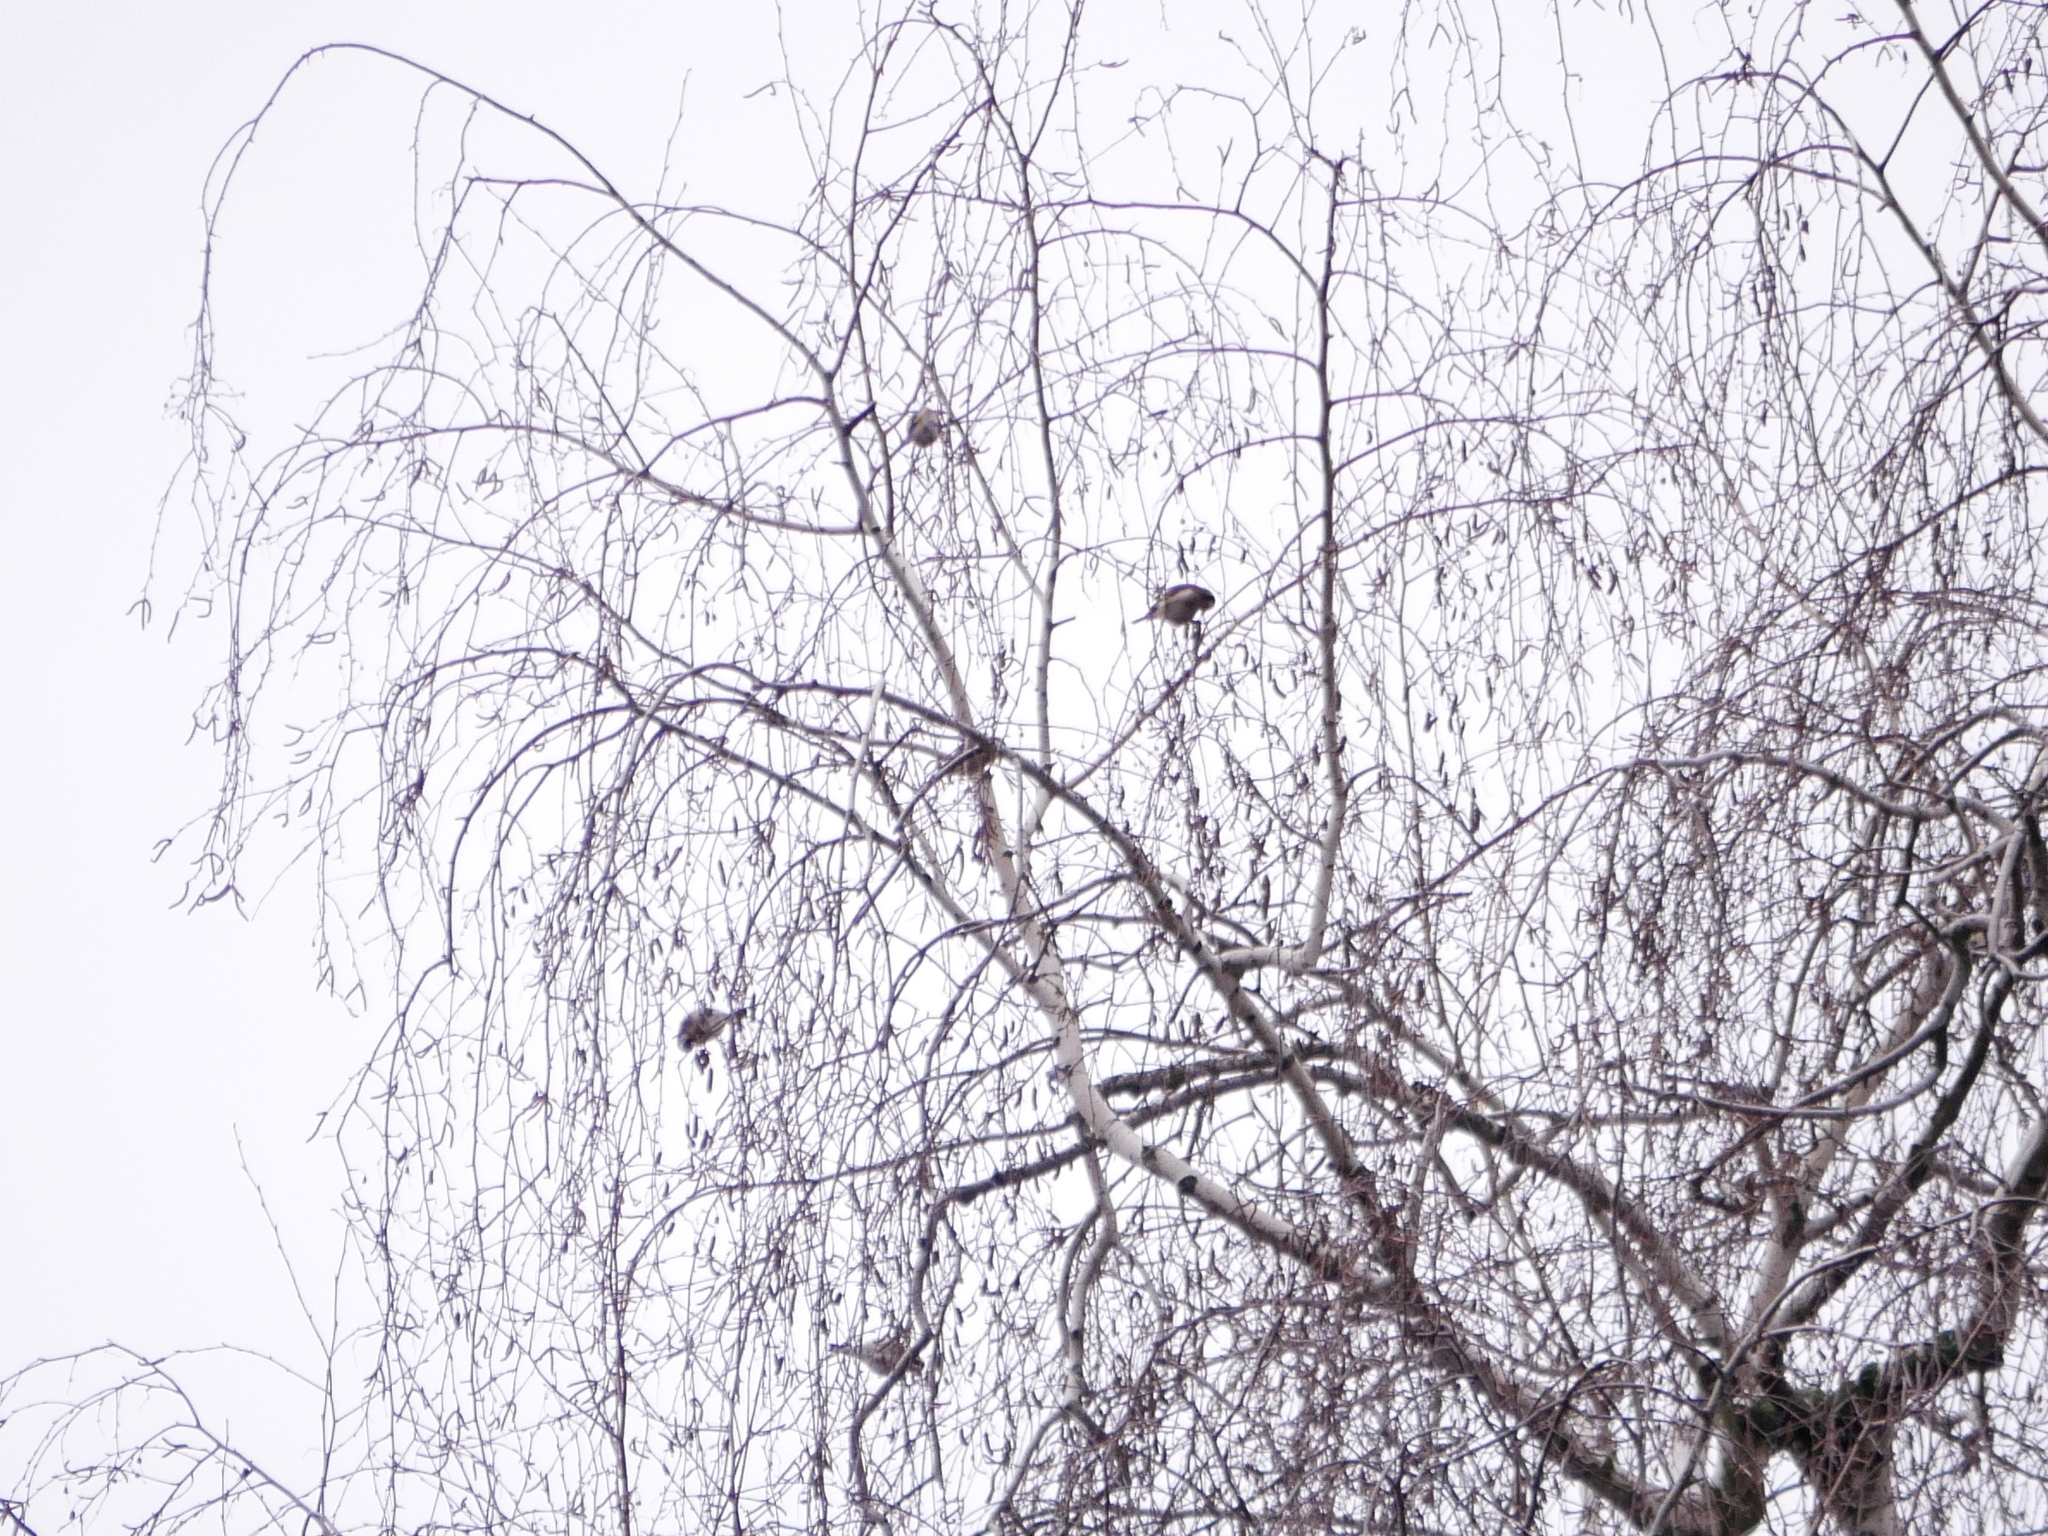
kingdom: Animalia
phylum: Chordata
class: Aves
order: Passeriformes
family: Fringillidae
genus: Carduelis
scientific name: Carduelis carduelis
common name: European goldfinch
